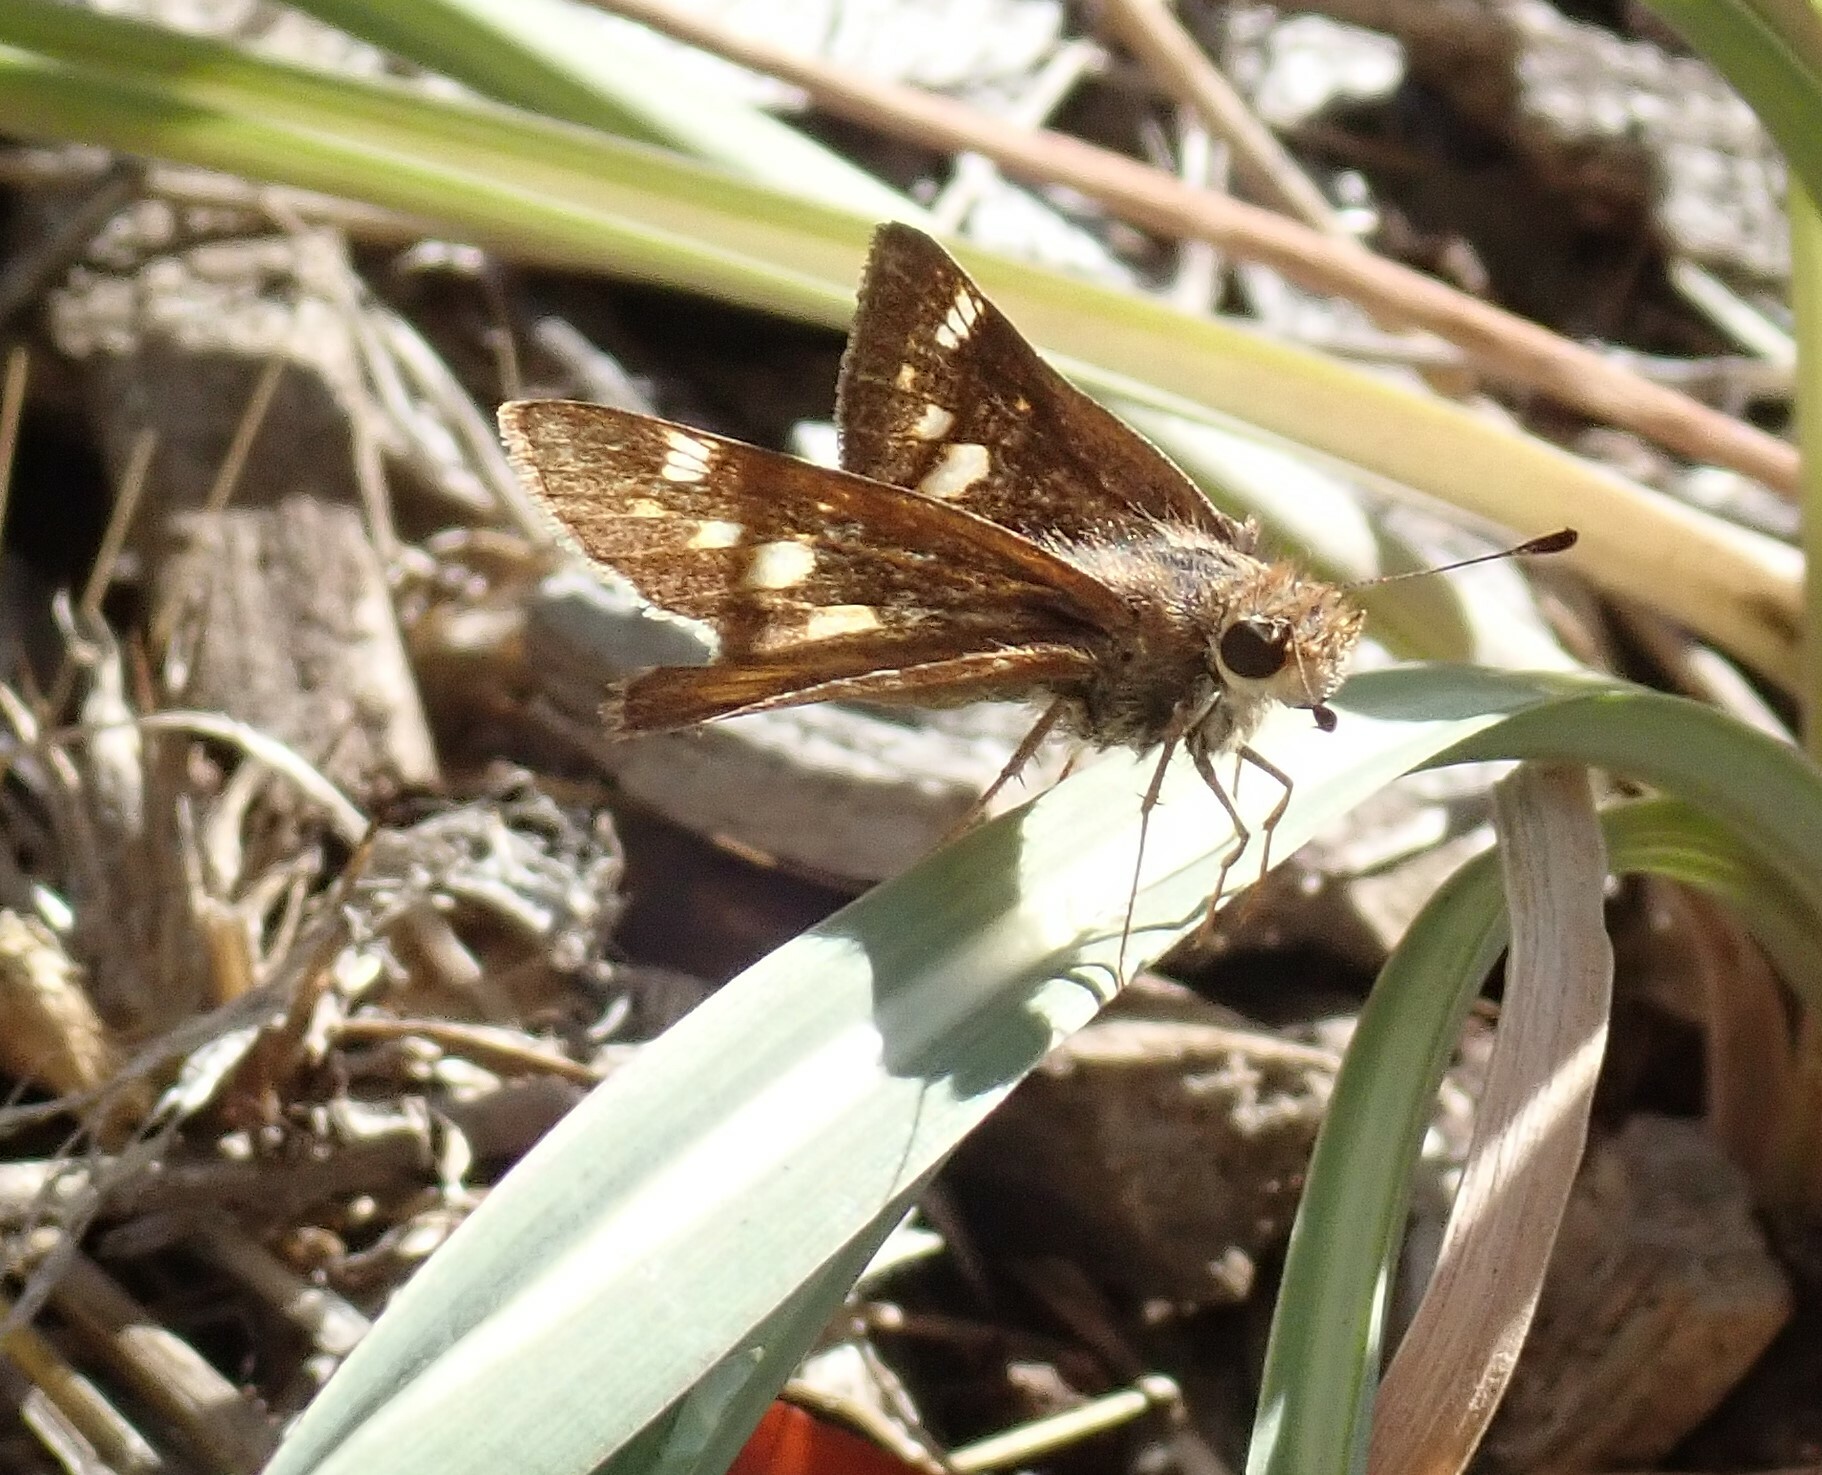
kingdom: Animalia
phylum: Arthropoda
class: Insecta
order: Lepidoptera
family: Hesperiidae
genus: Lon
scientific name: Lon melane
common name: Umber skipper
